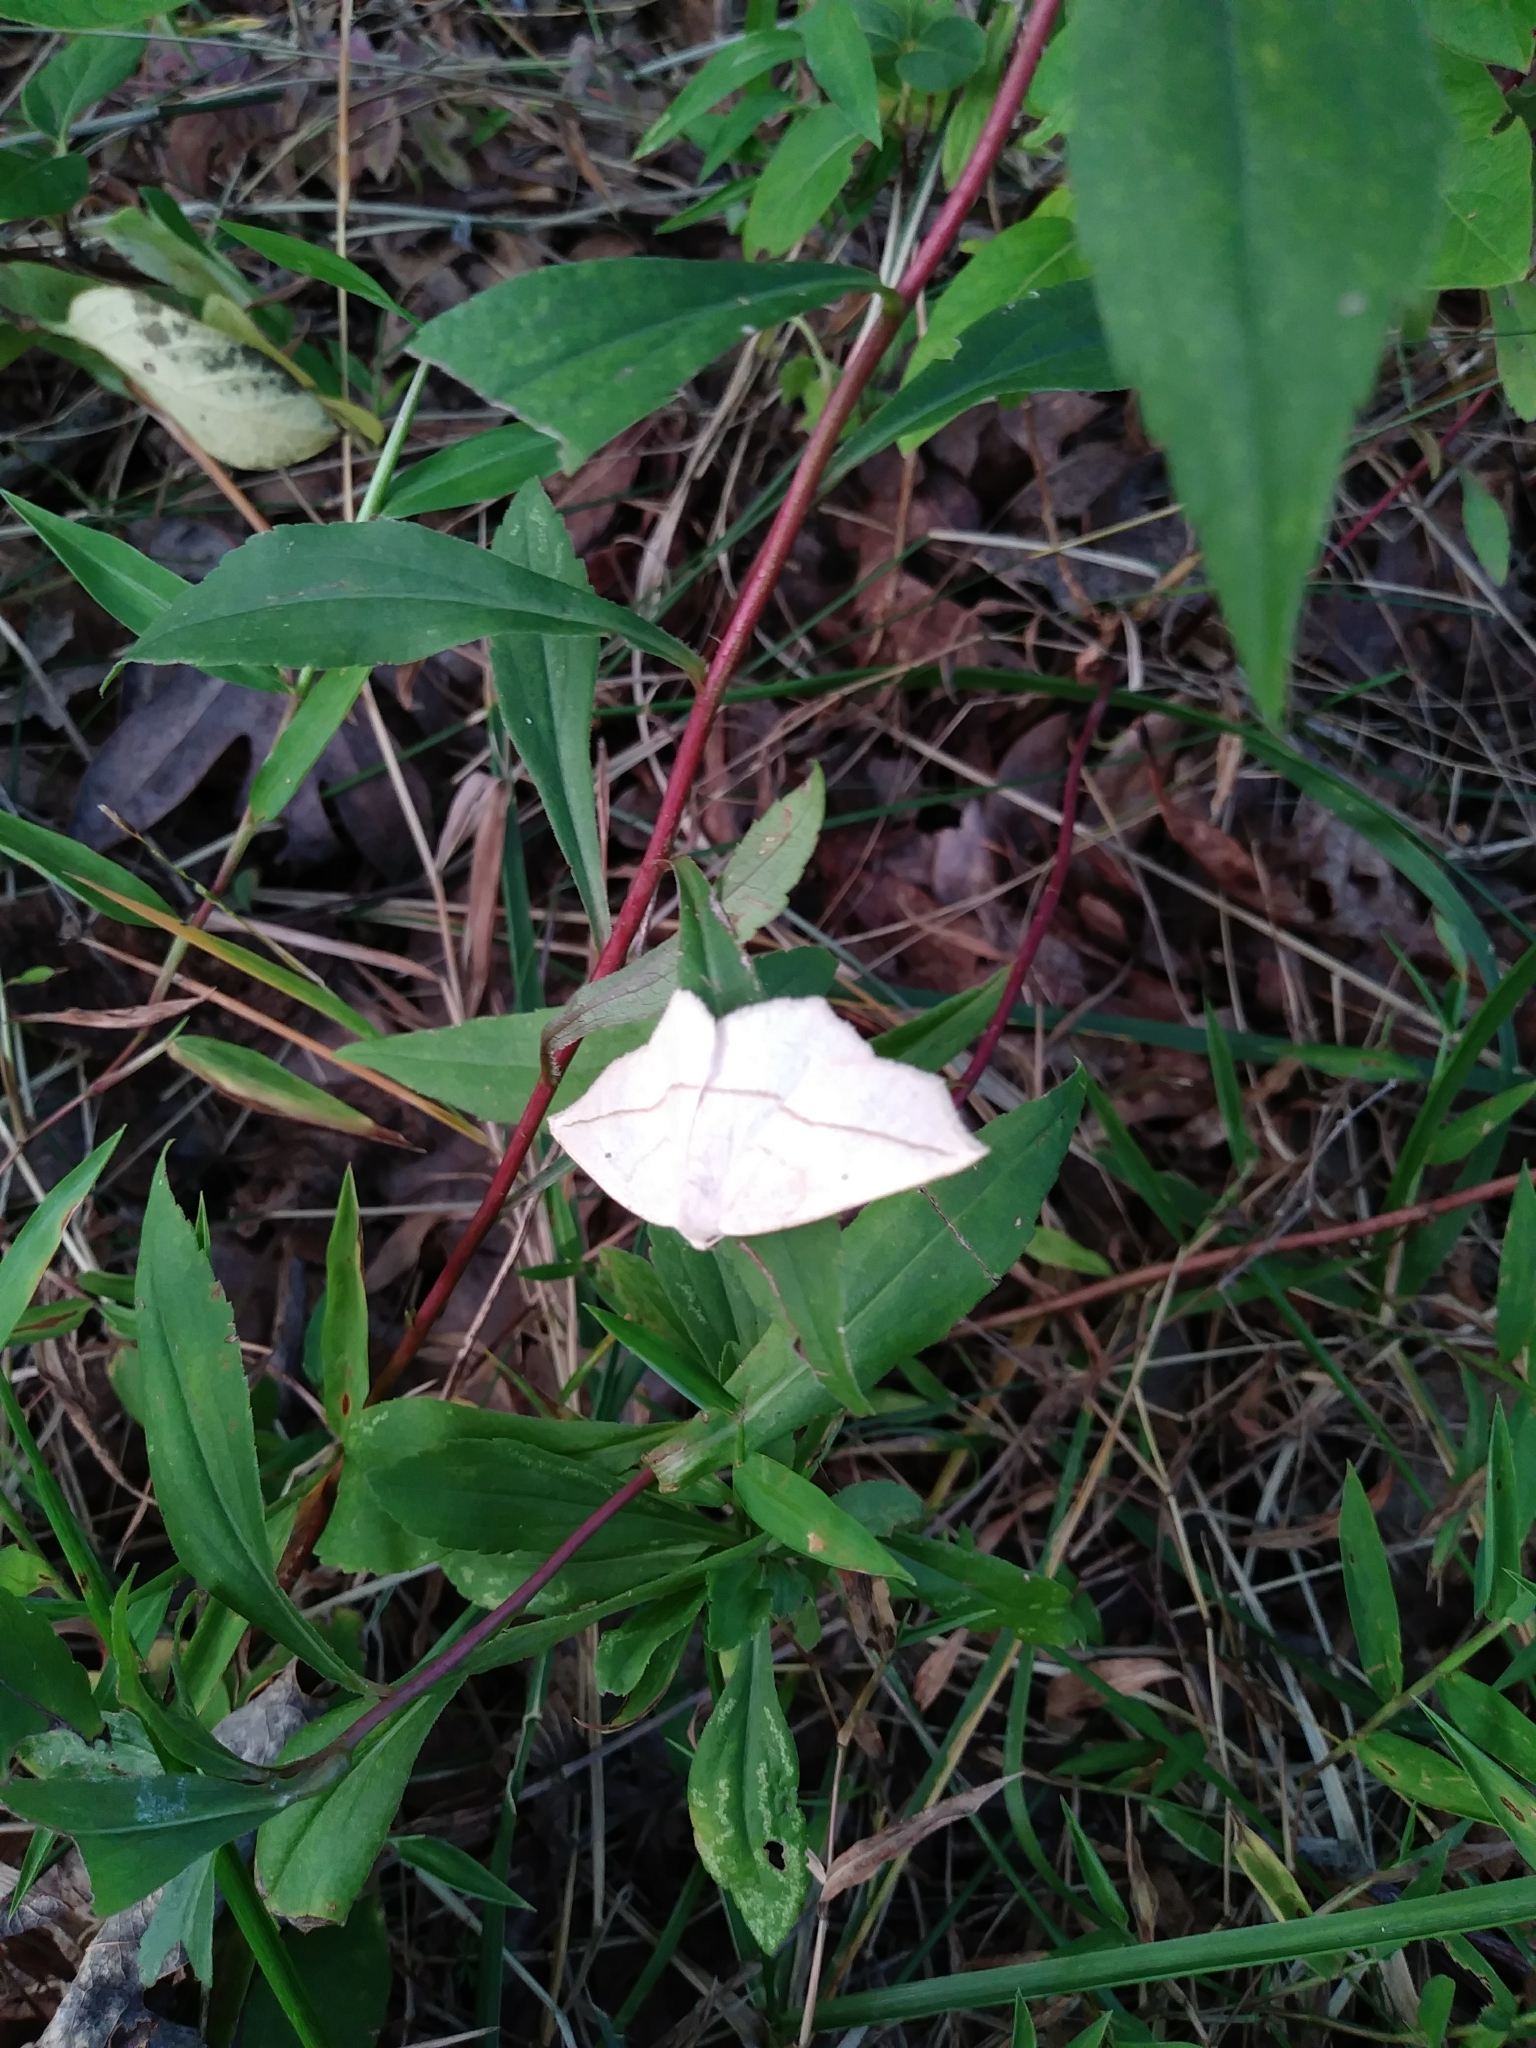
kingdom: Animalia
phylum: Arthropoda
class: Insecta
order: Lepidoptera
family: Geometridae
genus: Eusarca
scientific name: Eusarca confusaria
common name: Confused eusarca
